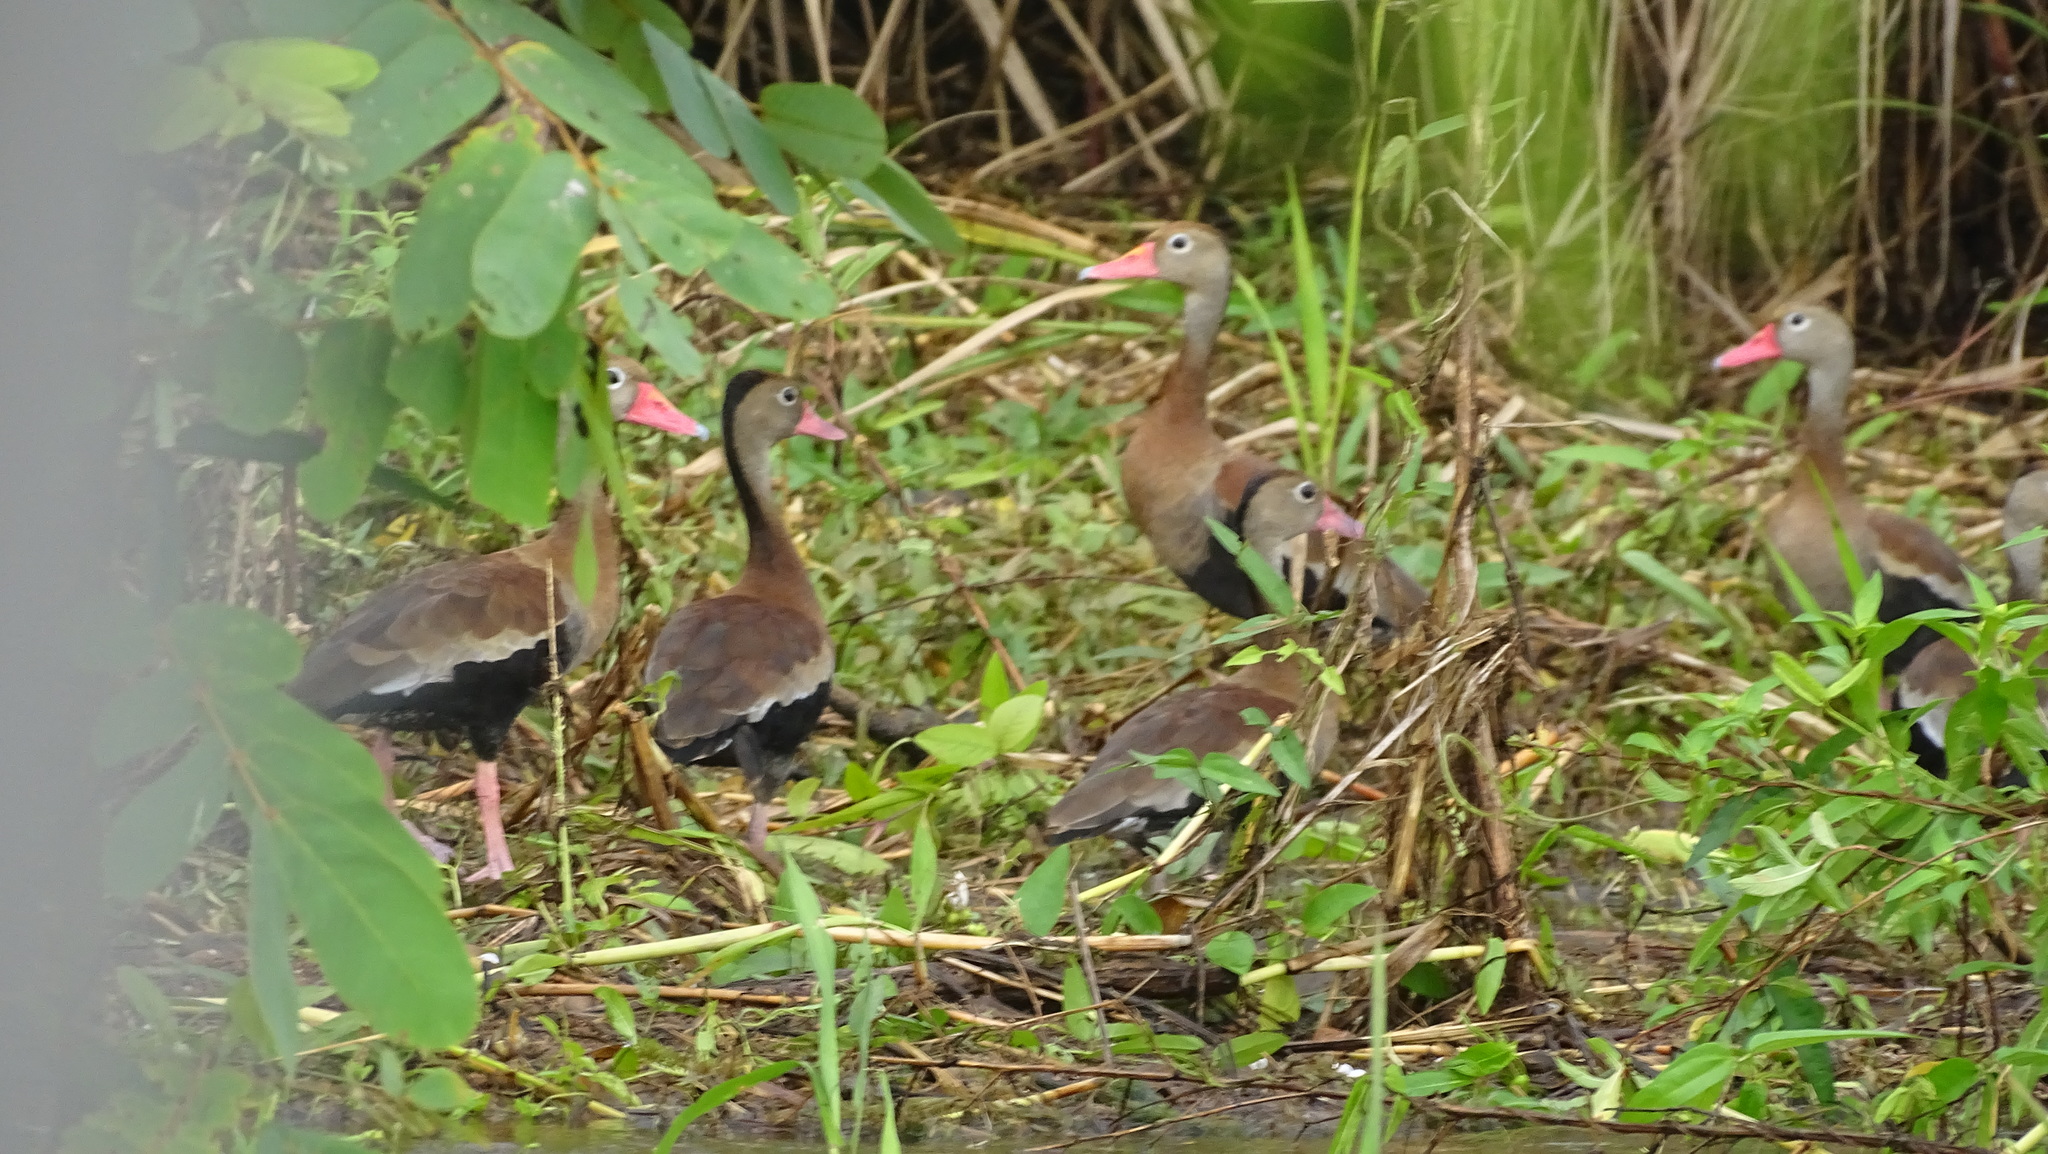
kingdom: Animalia
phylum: Chordata
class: Aves
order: Anseriformes
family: Anatidae
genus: Dendrocygna
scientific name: Dendrocygna autumnalis
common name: Black-bellied whistling duck
